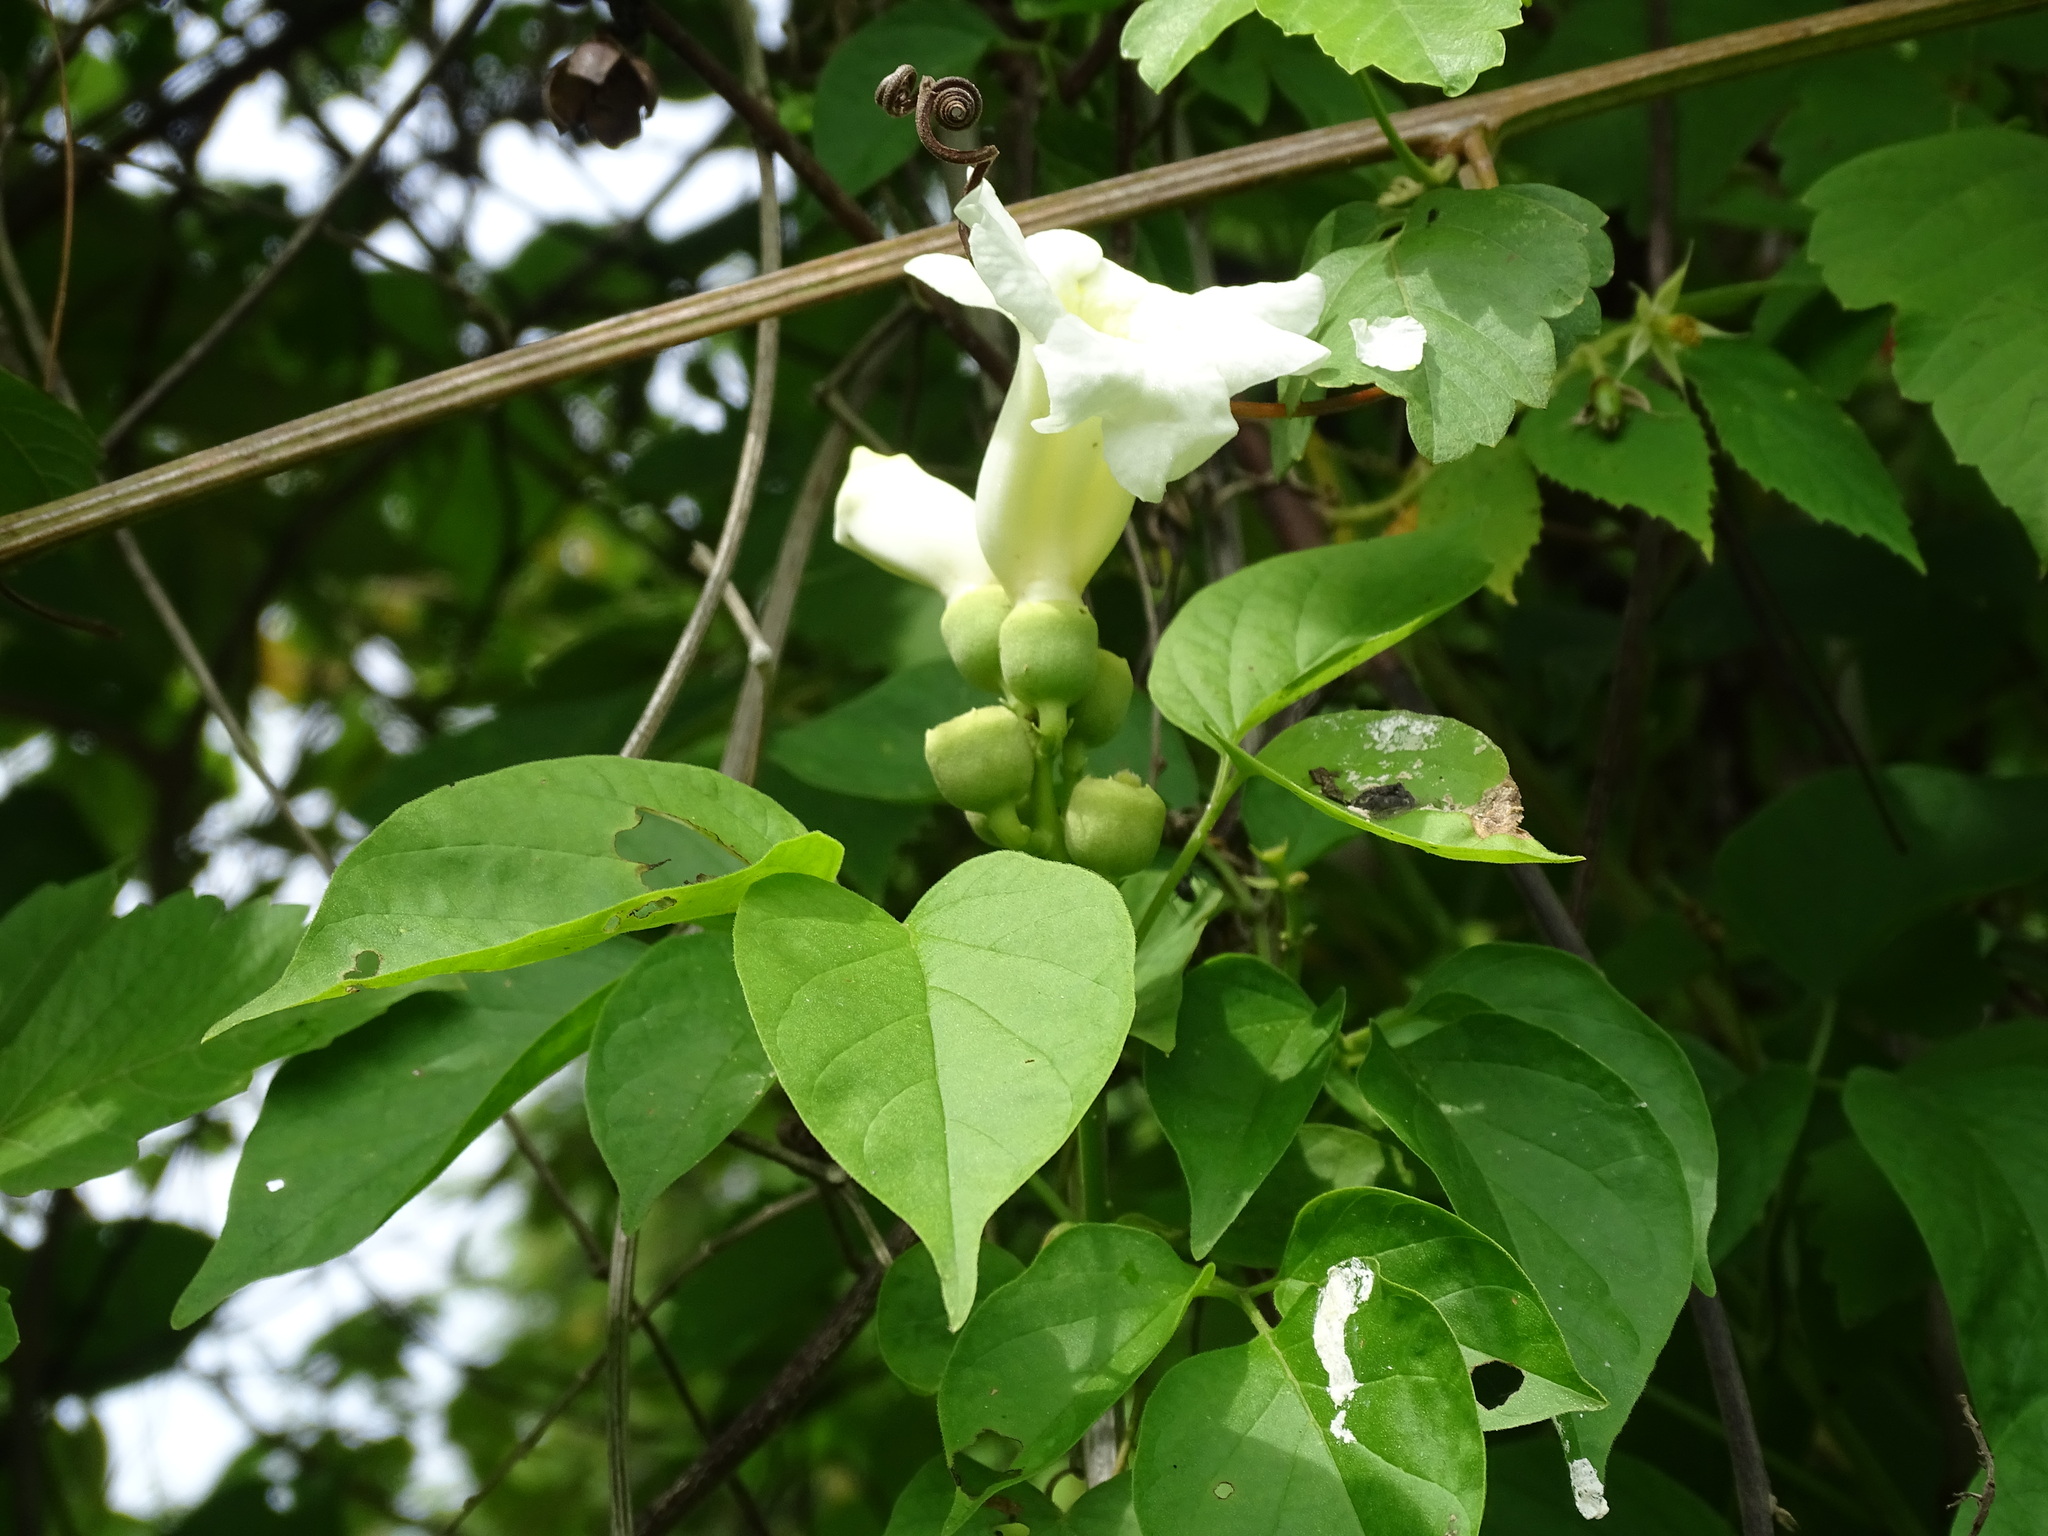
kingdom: Plantae
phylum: Tracheophyta
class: Magnoliopsida
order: Lamiales
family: Bignoniaceae
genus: Amphilophium
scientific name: Amphilophium crucigerum
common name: Monkey comb
